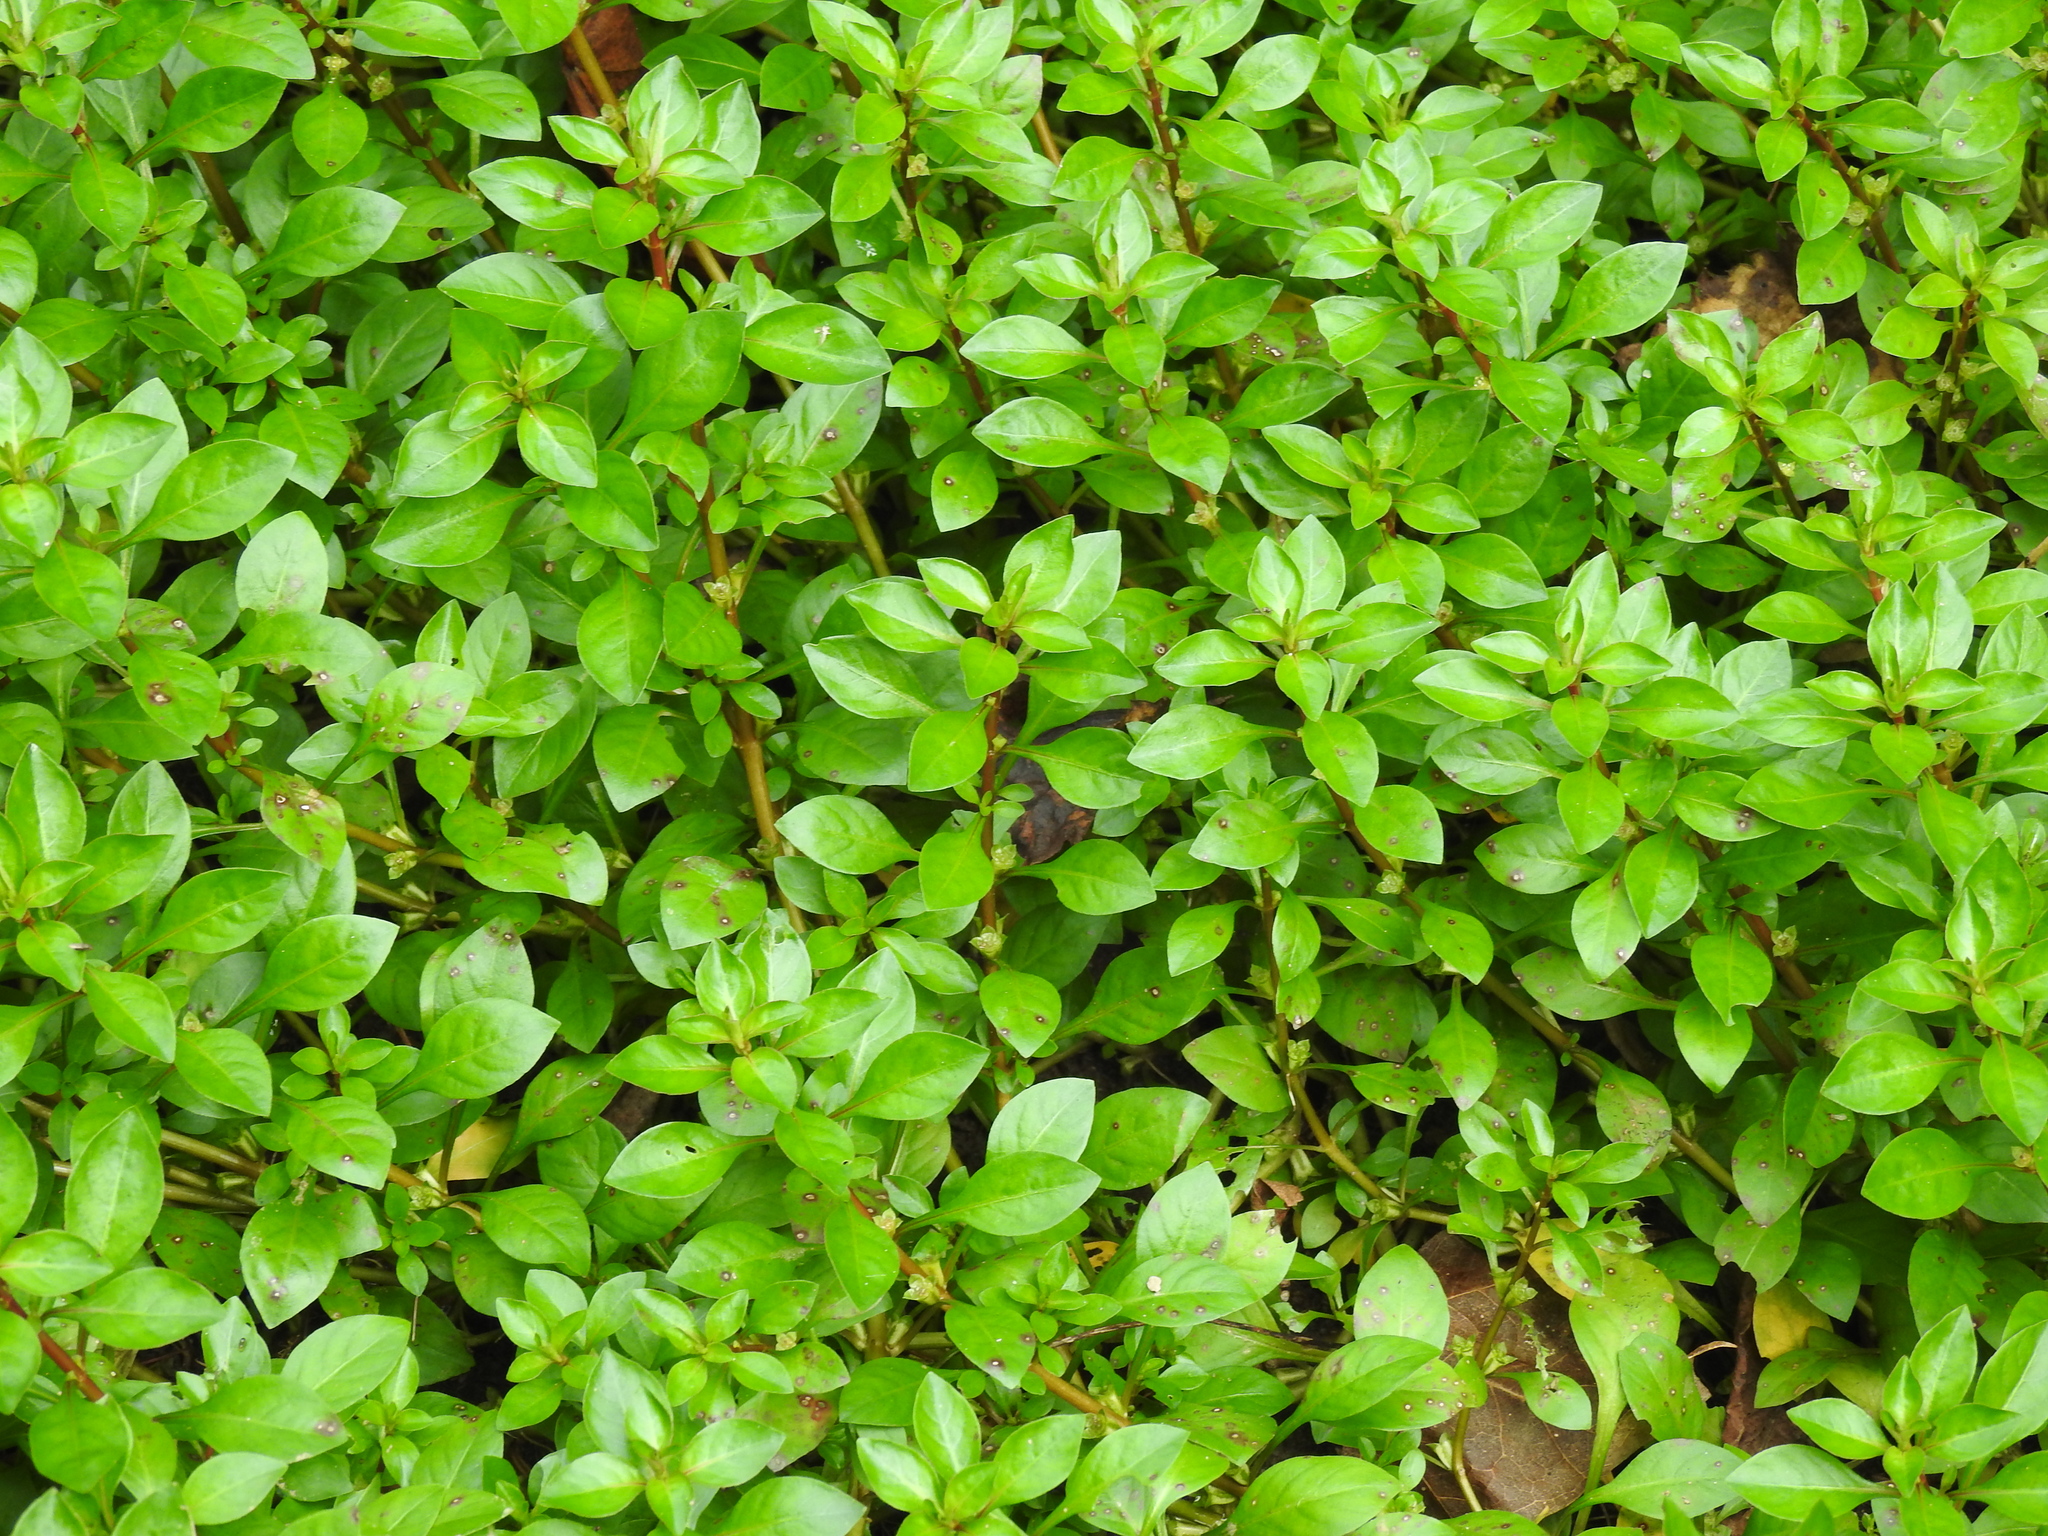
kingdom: Plantae
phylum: Tracheophyta
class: Magnoliopsida
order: Myrtales
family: Onagraceae
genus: Ludwigia
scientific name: Ludwigia palustris
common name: Hampshire-purslane
